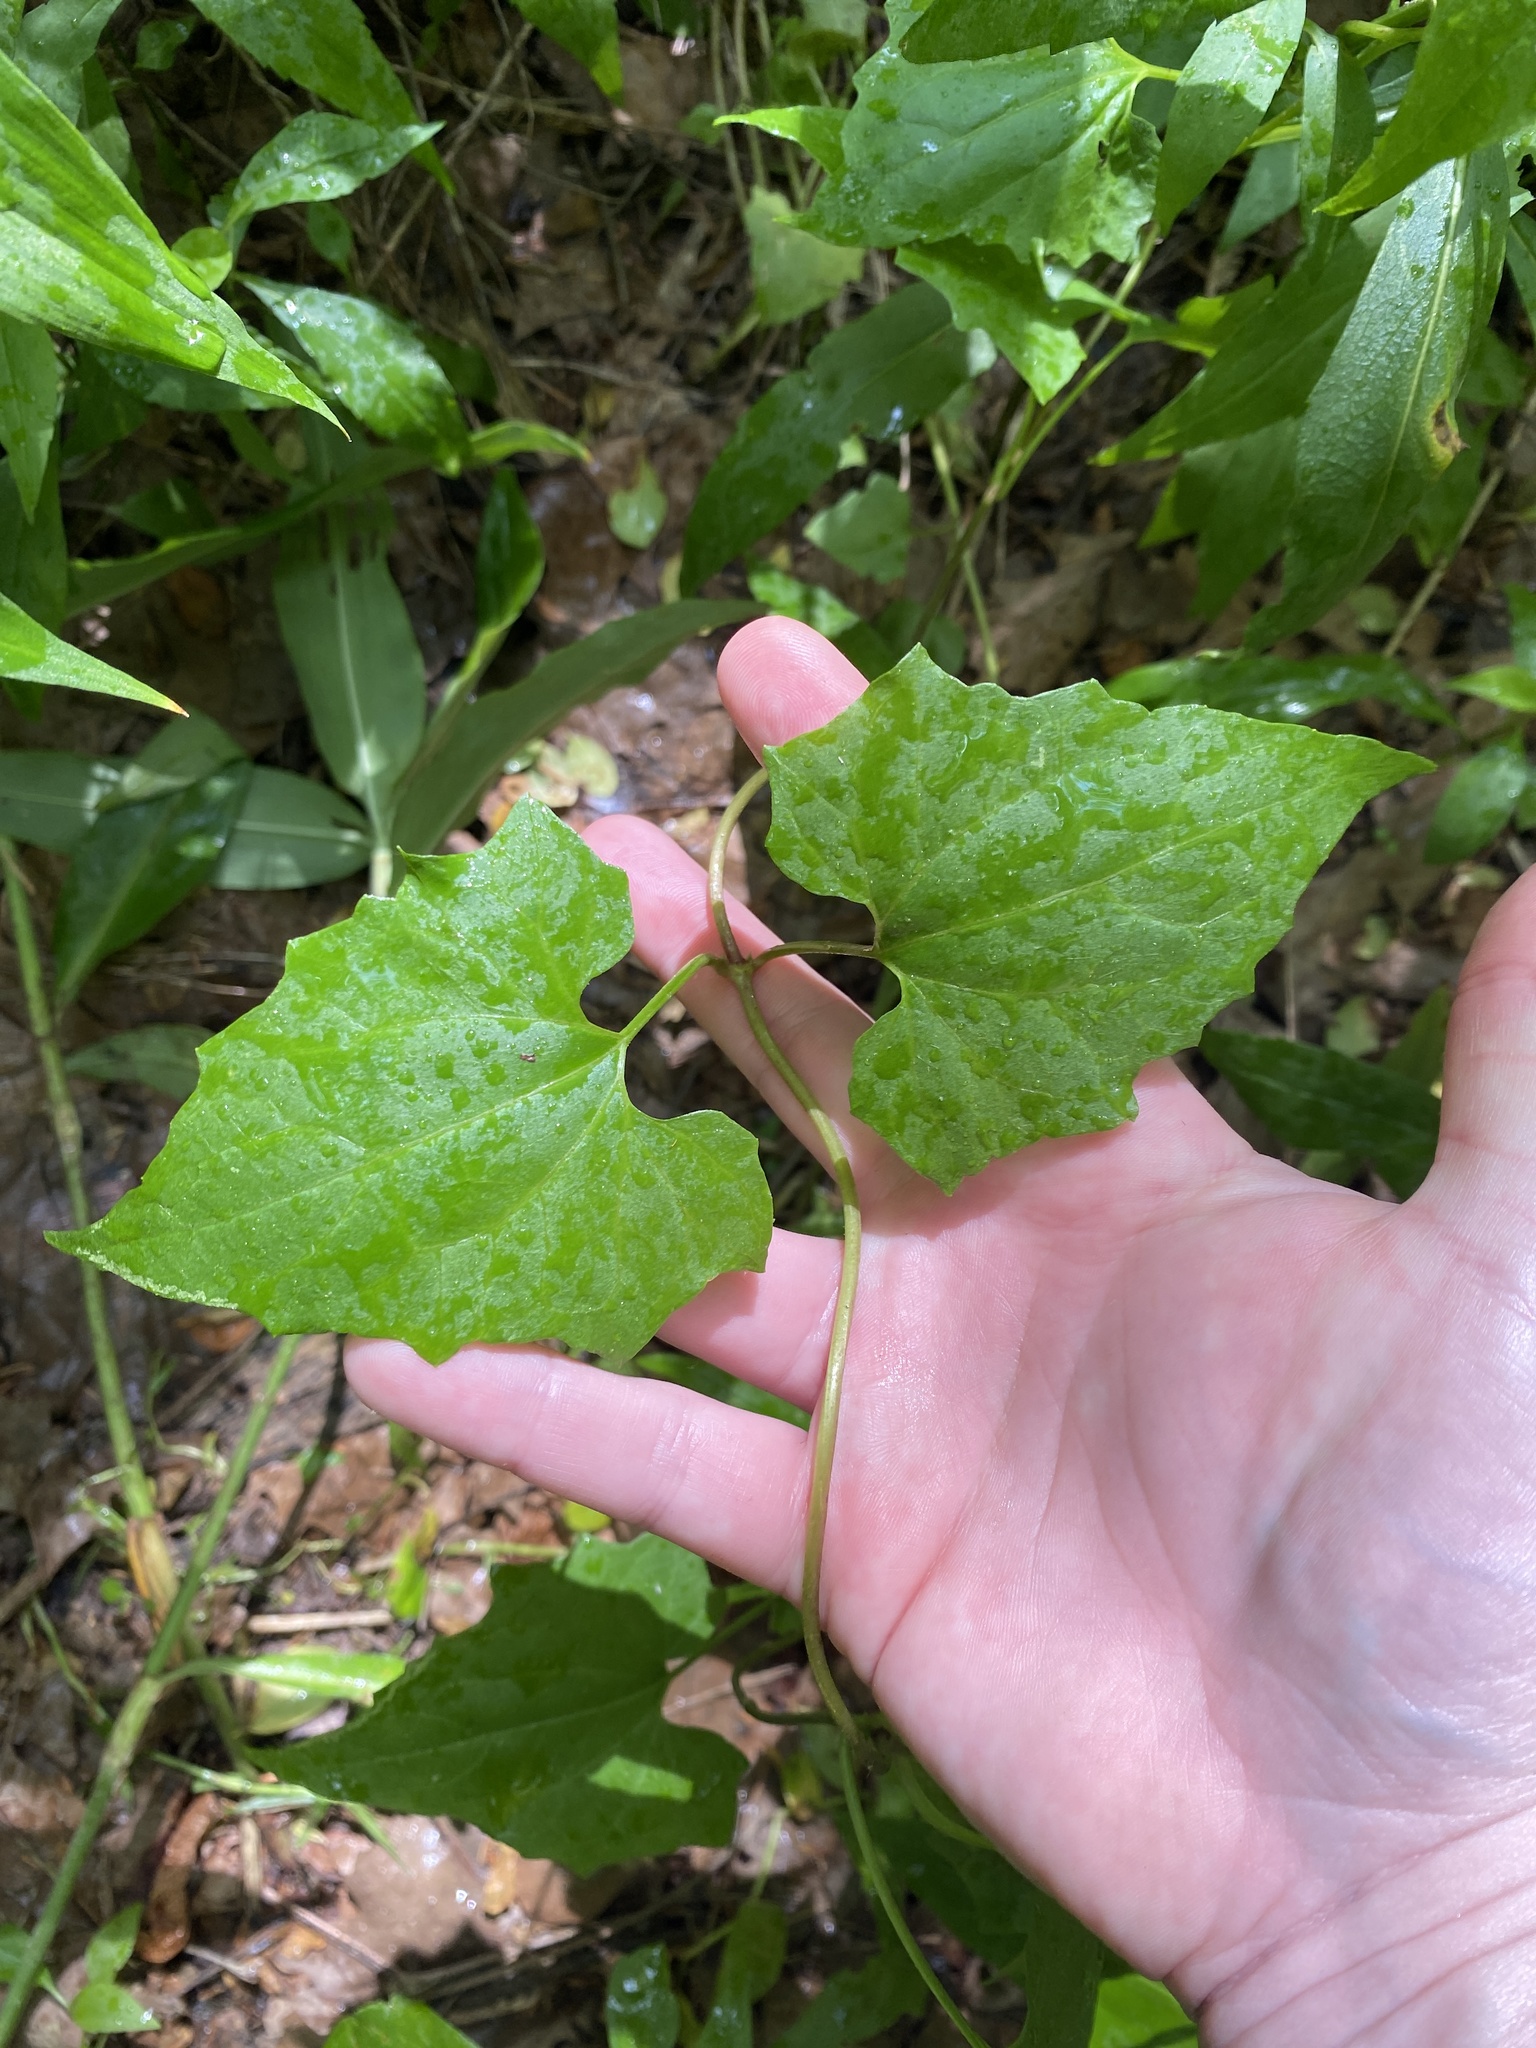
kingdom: Plantae
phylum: Tracheophyta
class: Magnoliopsida
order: Asterales
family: Asteraceae
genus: Mikania
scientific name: Mikania scandens
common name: Climbing hempvine
